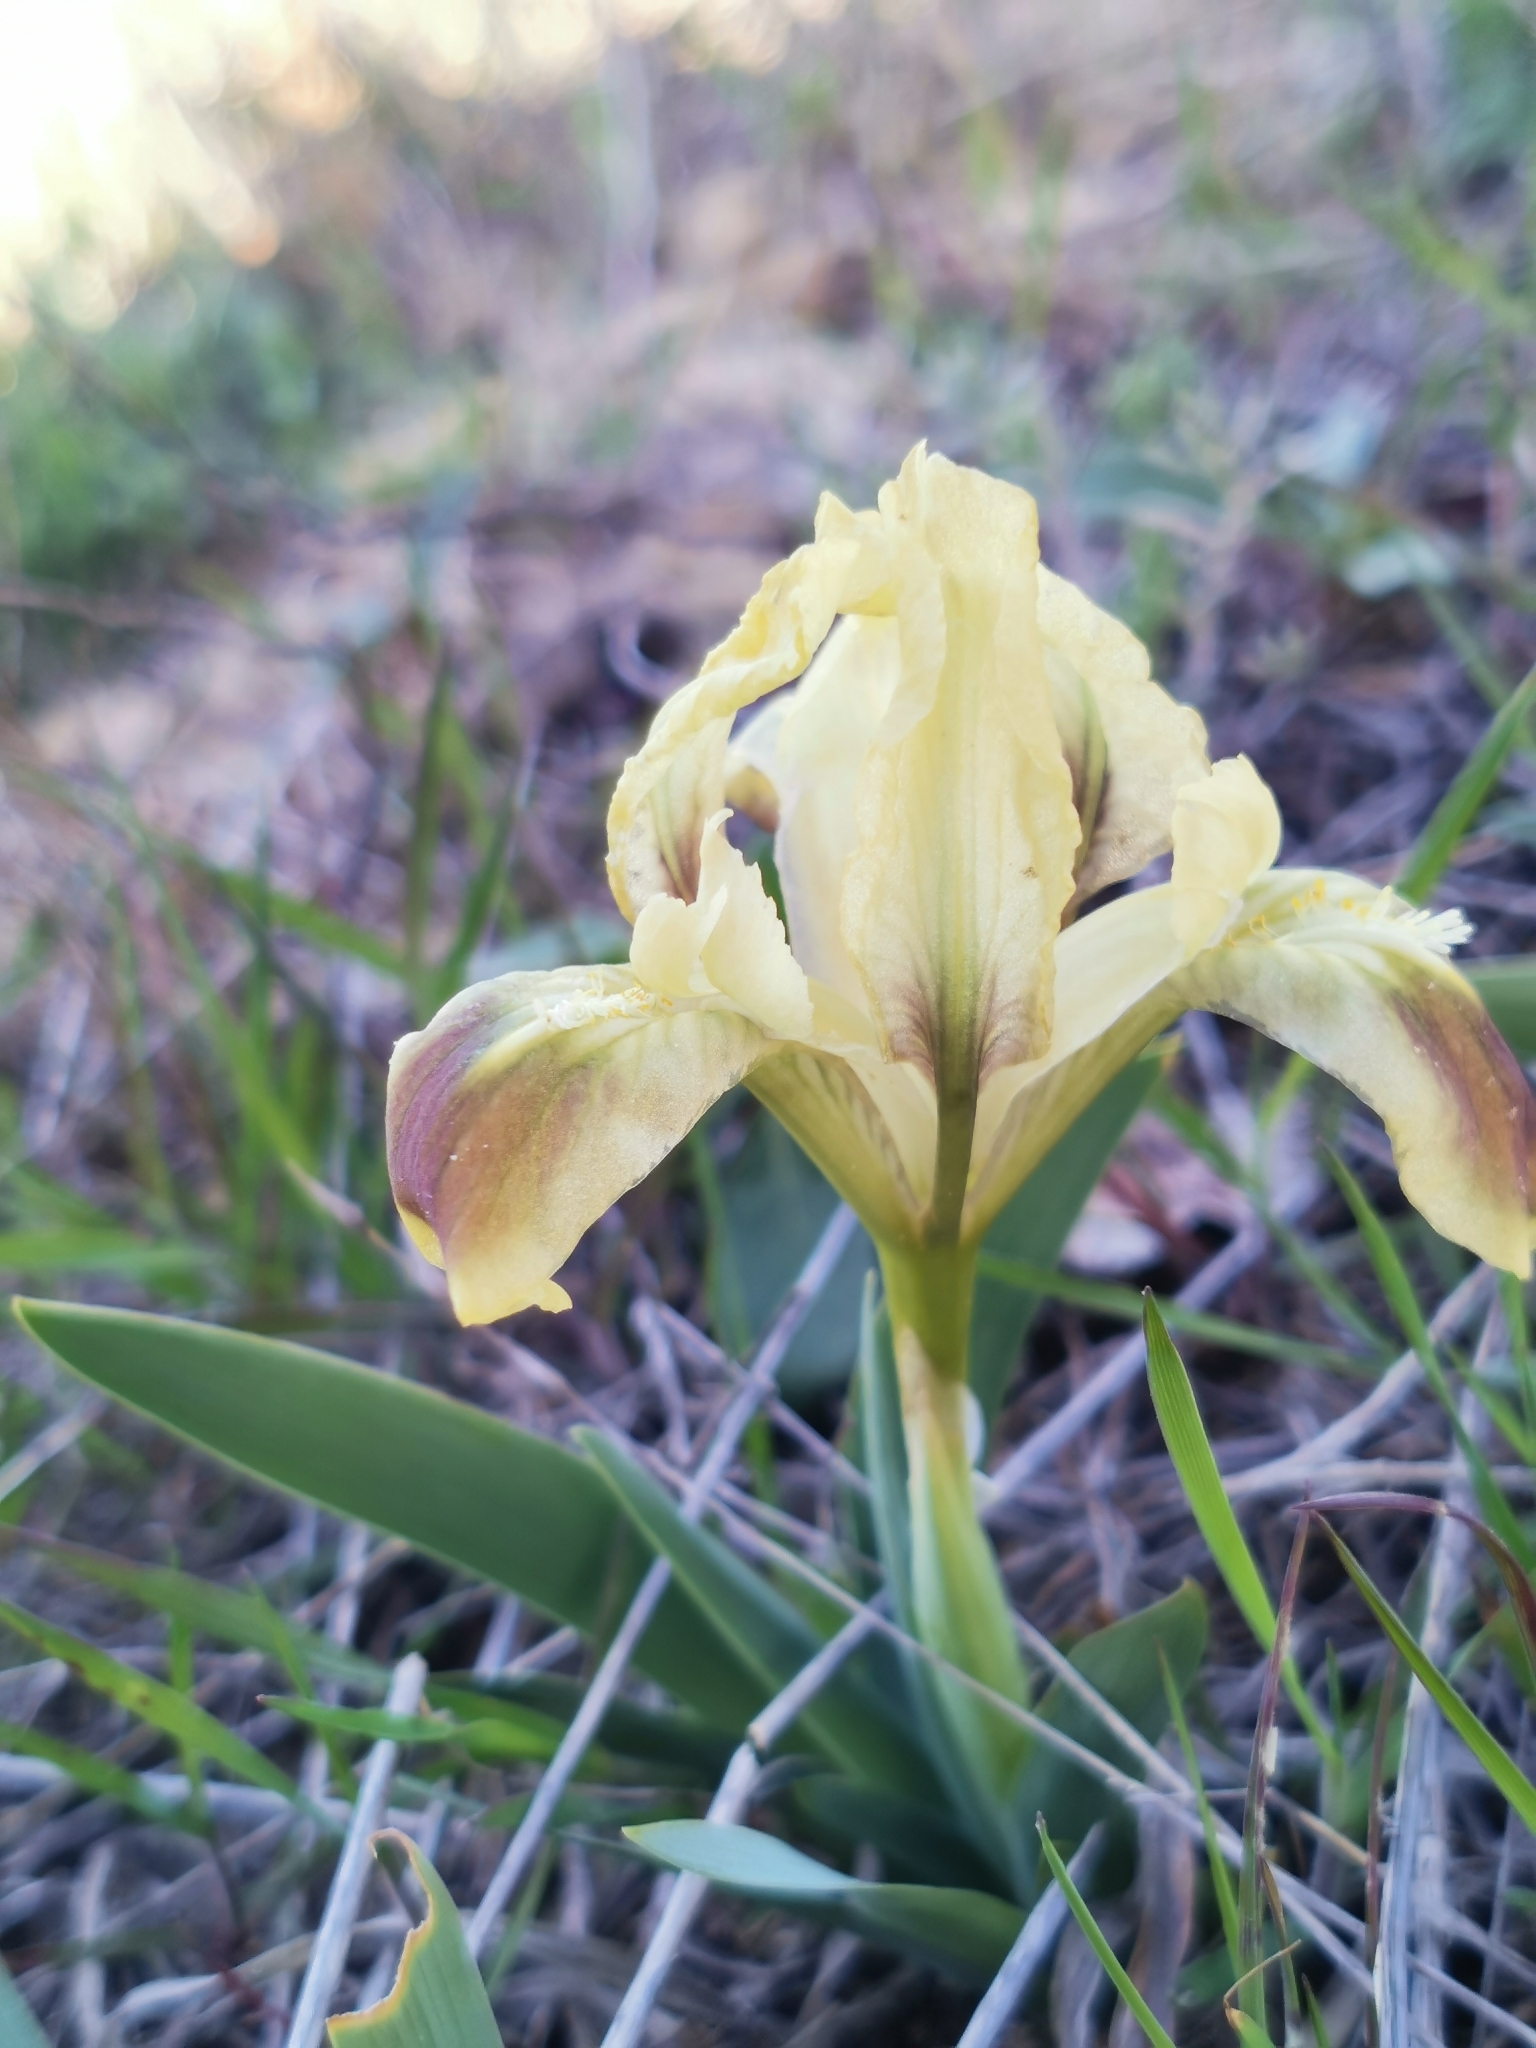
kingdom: Plantae
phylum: Tracheophyta
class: Liliopsida
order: Asparagales
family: Iridaceae
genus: Iris
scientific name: Iris pumila
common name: Dwarf iris
